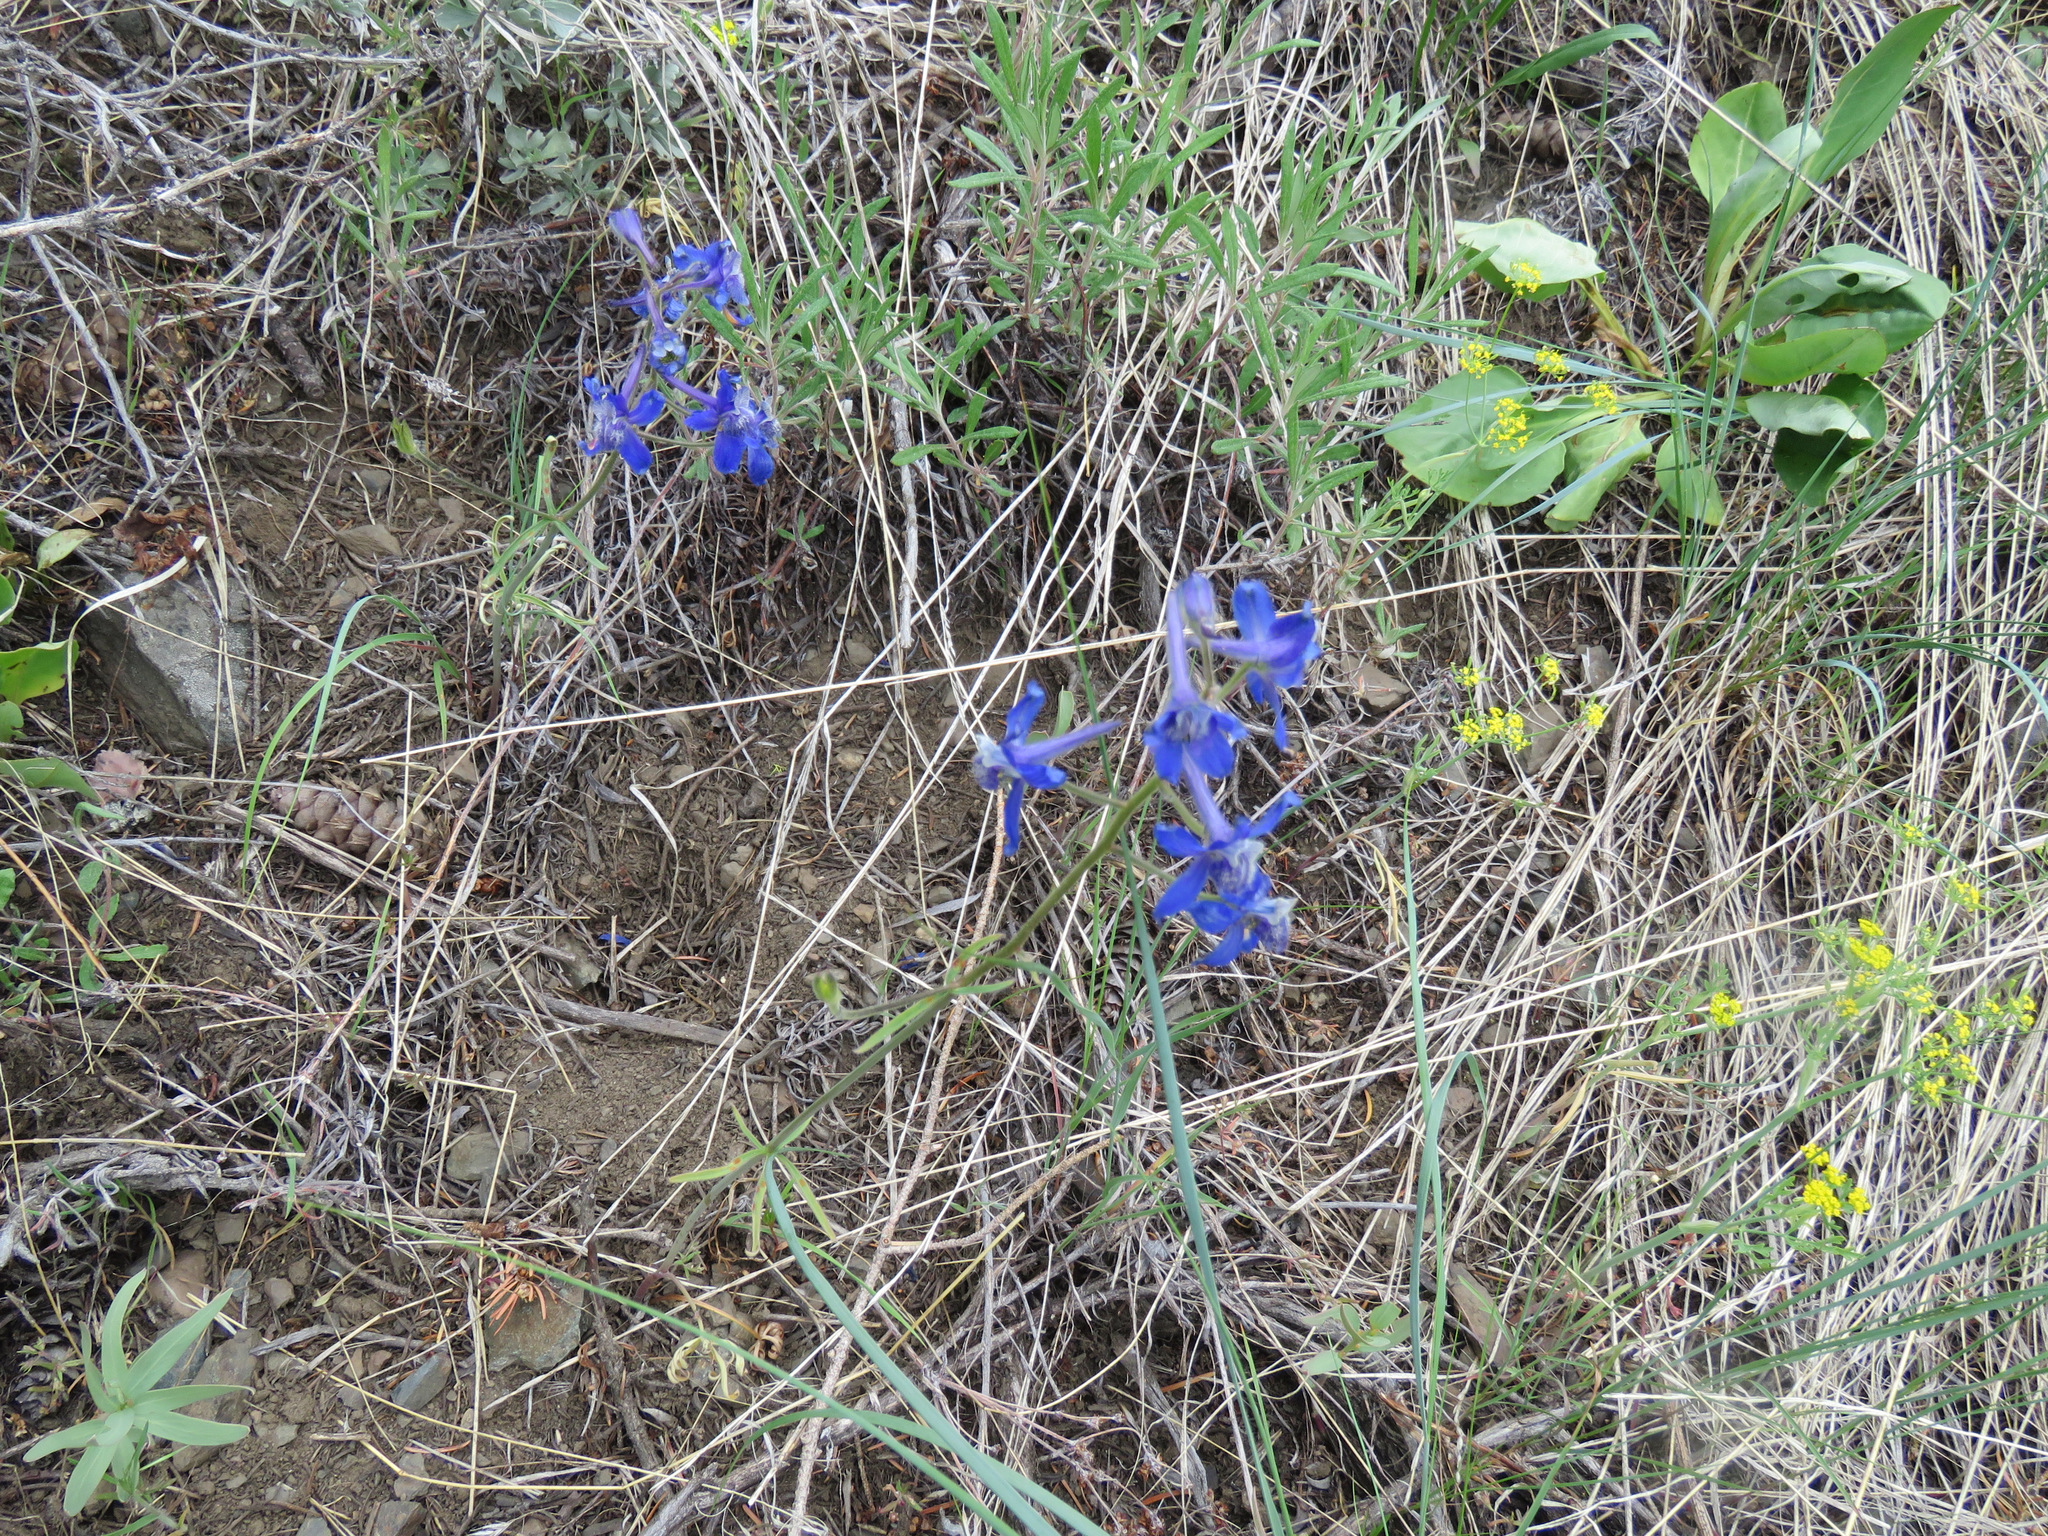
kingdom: Plantae
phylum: Tracheophyta
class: Magnoliopsida
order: Ranunculales
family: Ranunculaceae
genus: Delphinium
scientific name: Delphinium nuttallianum
